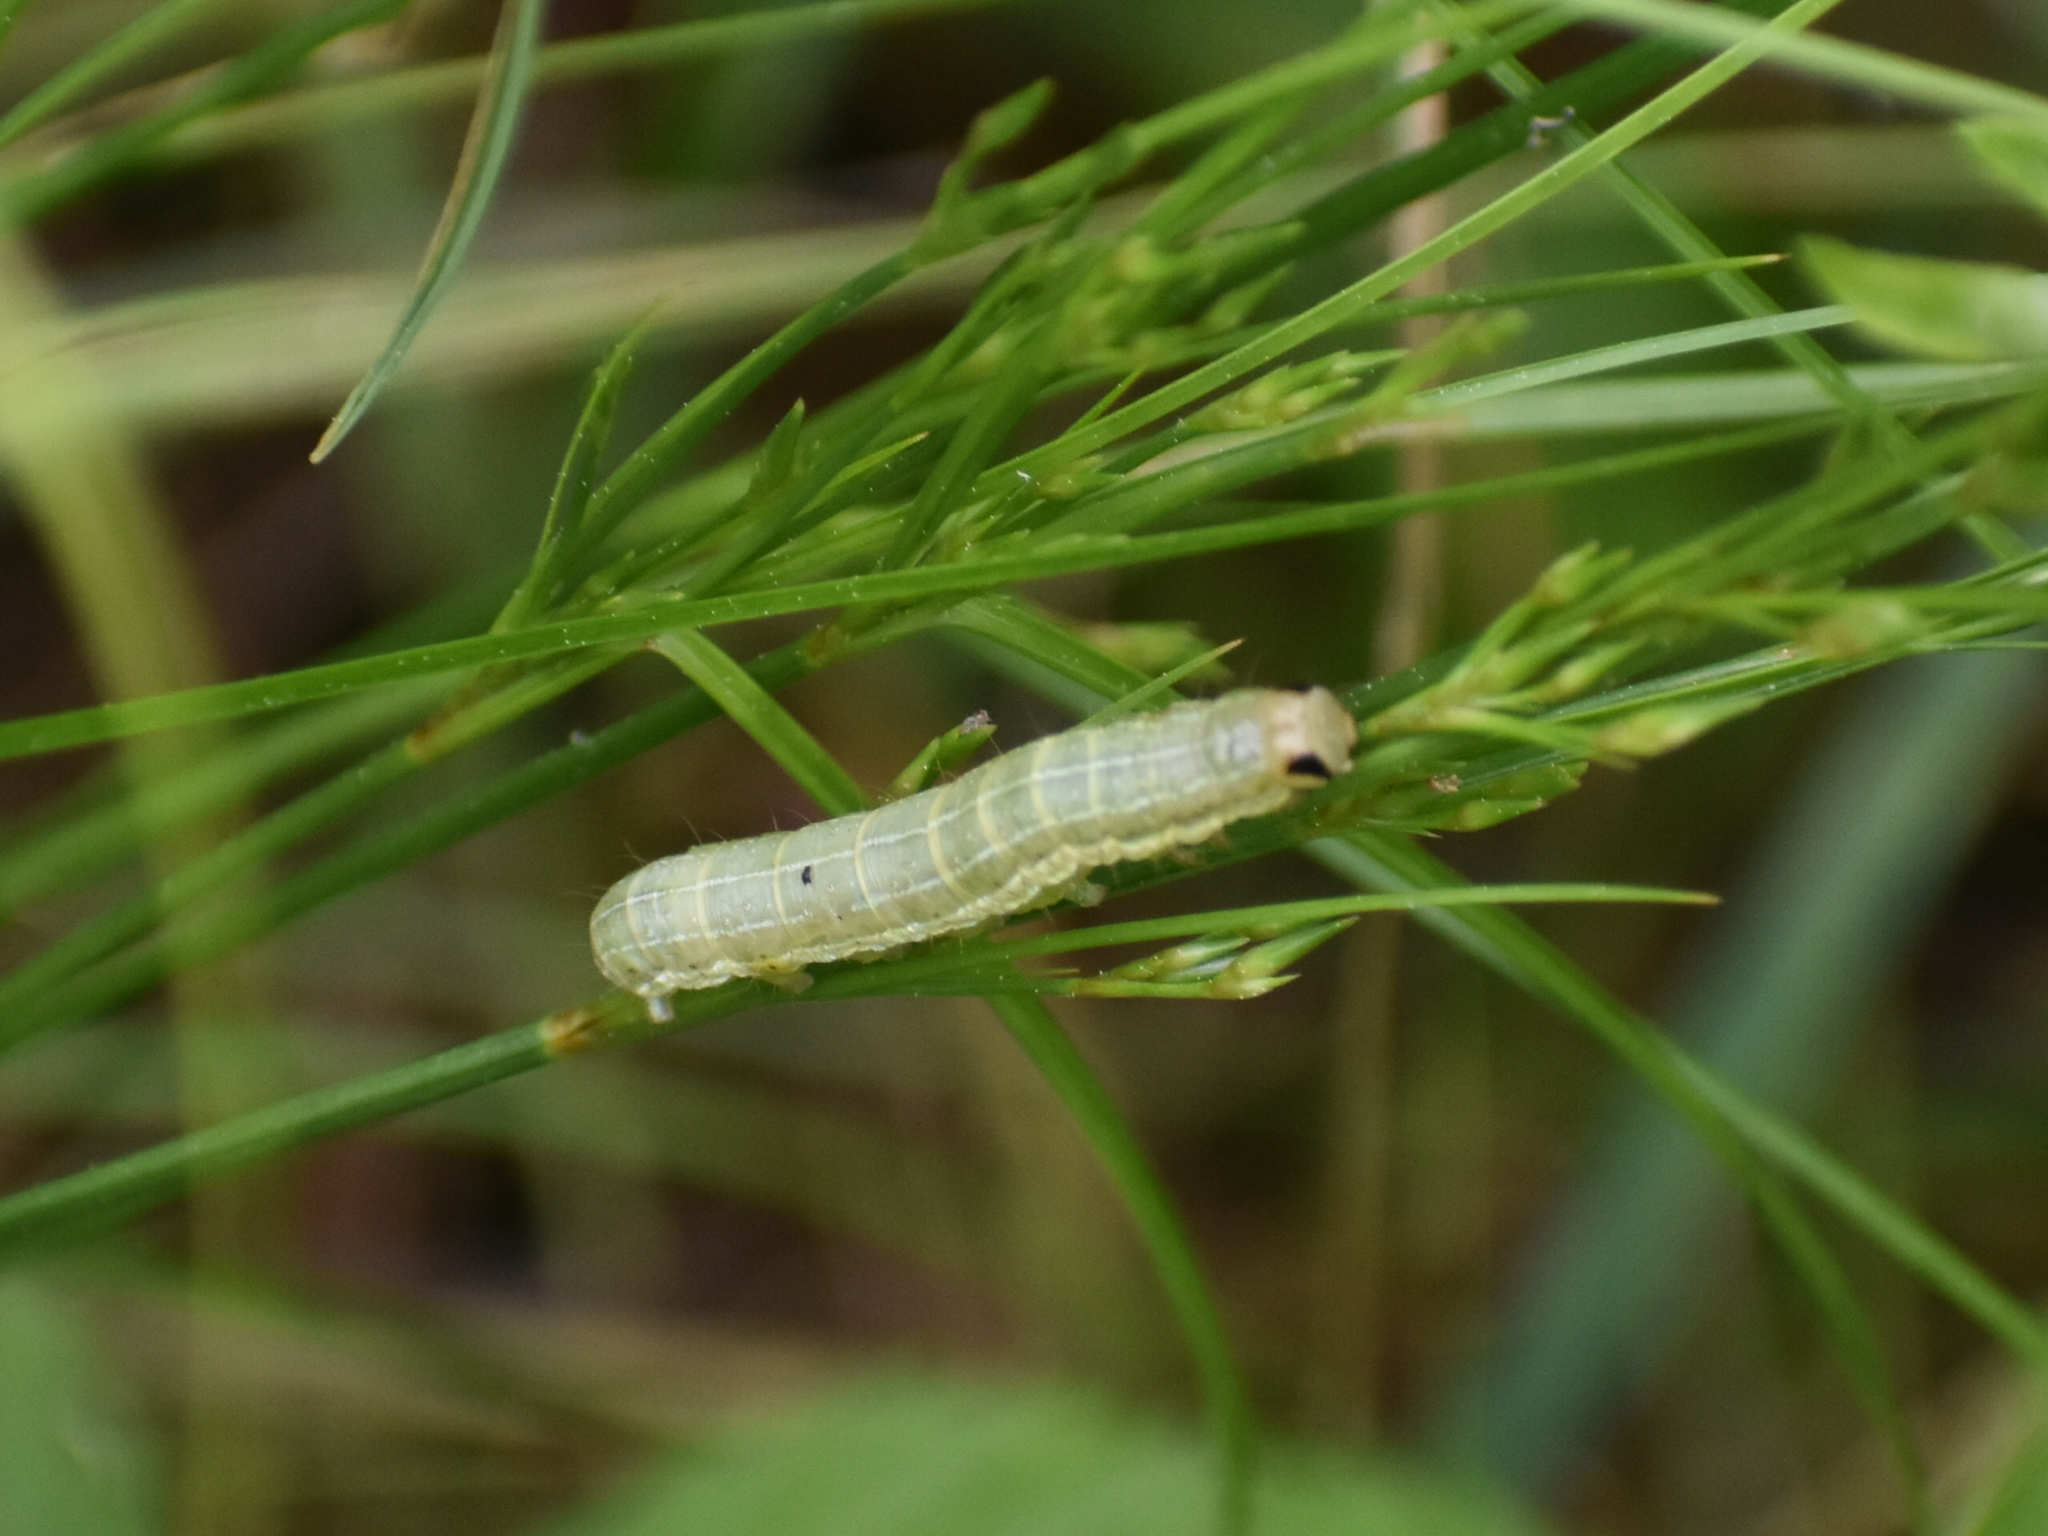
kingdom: Animalia
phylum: Arthropoda
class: Insecta
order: Lepidoptera
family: Noctuidae
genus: Loscopia
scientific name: Loscopia velata
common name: Veiled ear moth
